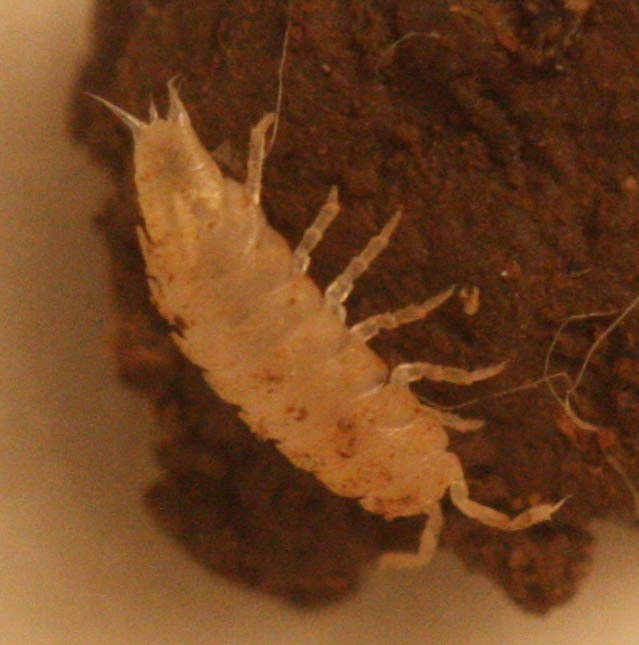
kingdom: Animalia
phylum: Arthropoda
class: Malacostraca
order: Isopoda
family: Trichoniscidae
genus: Brackenridgia
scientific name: Brackenridgia heroldi
